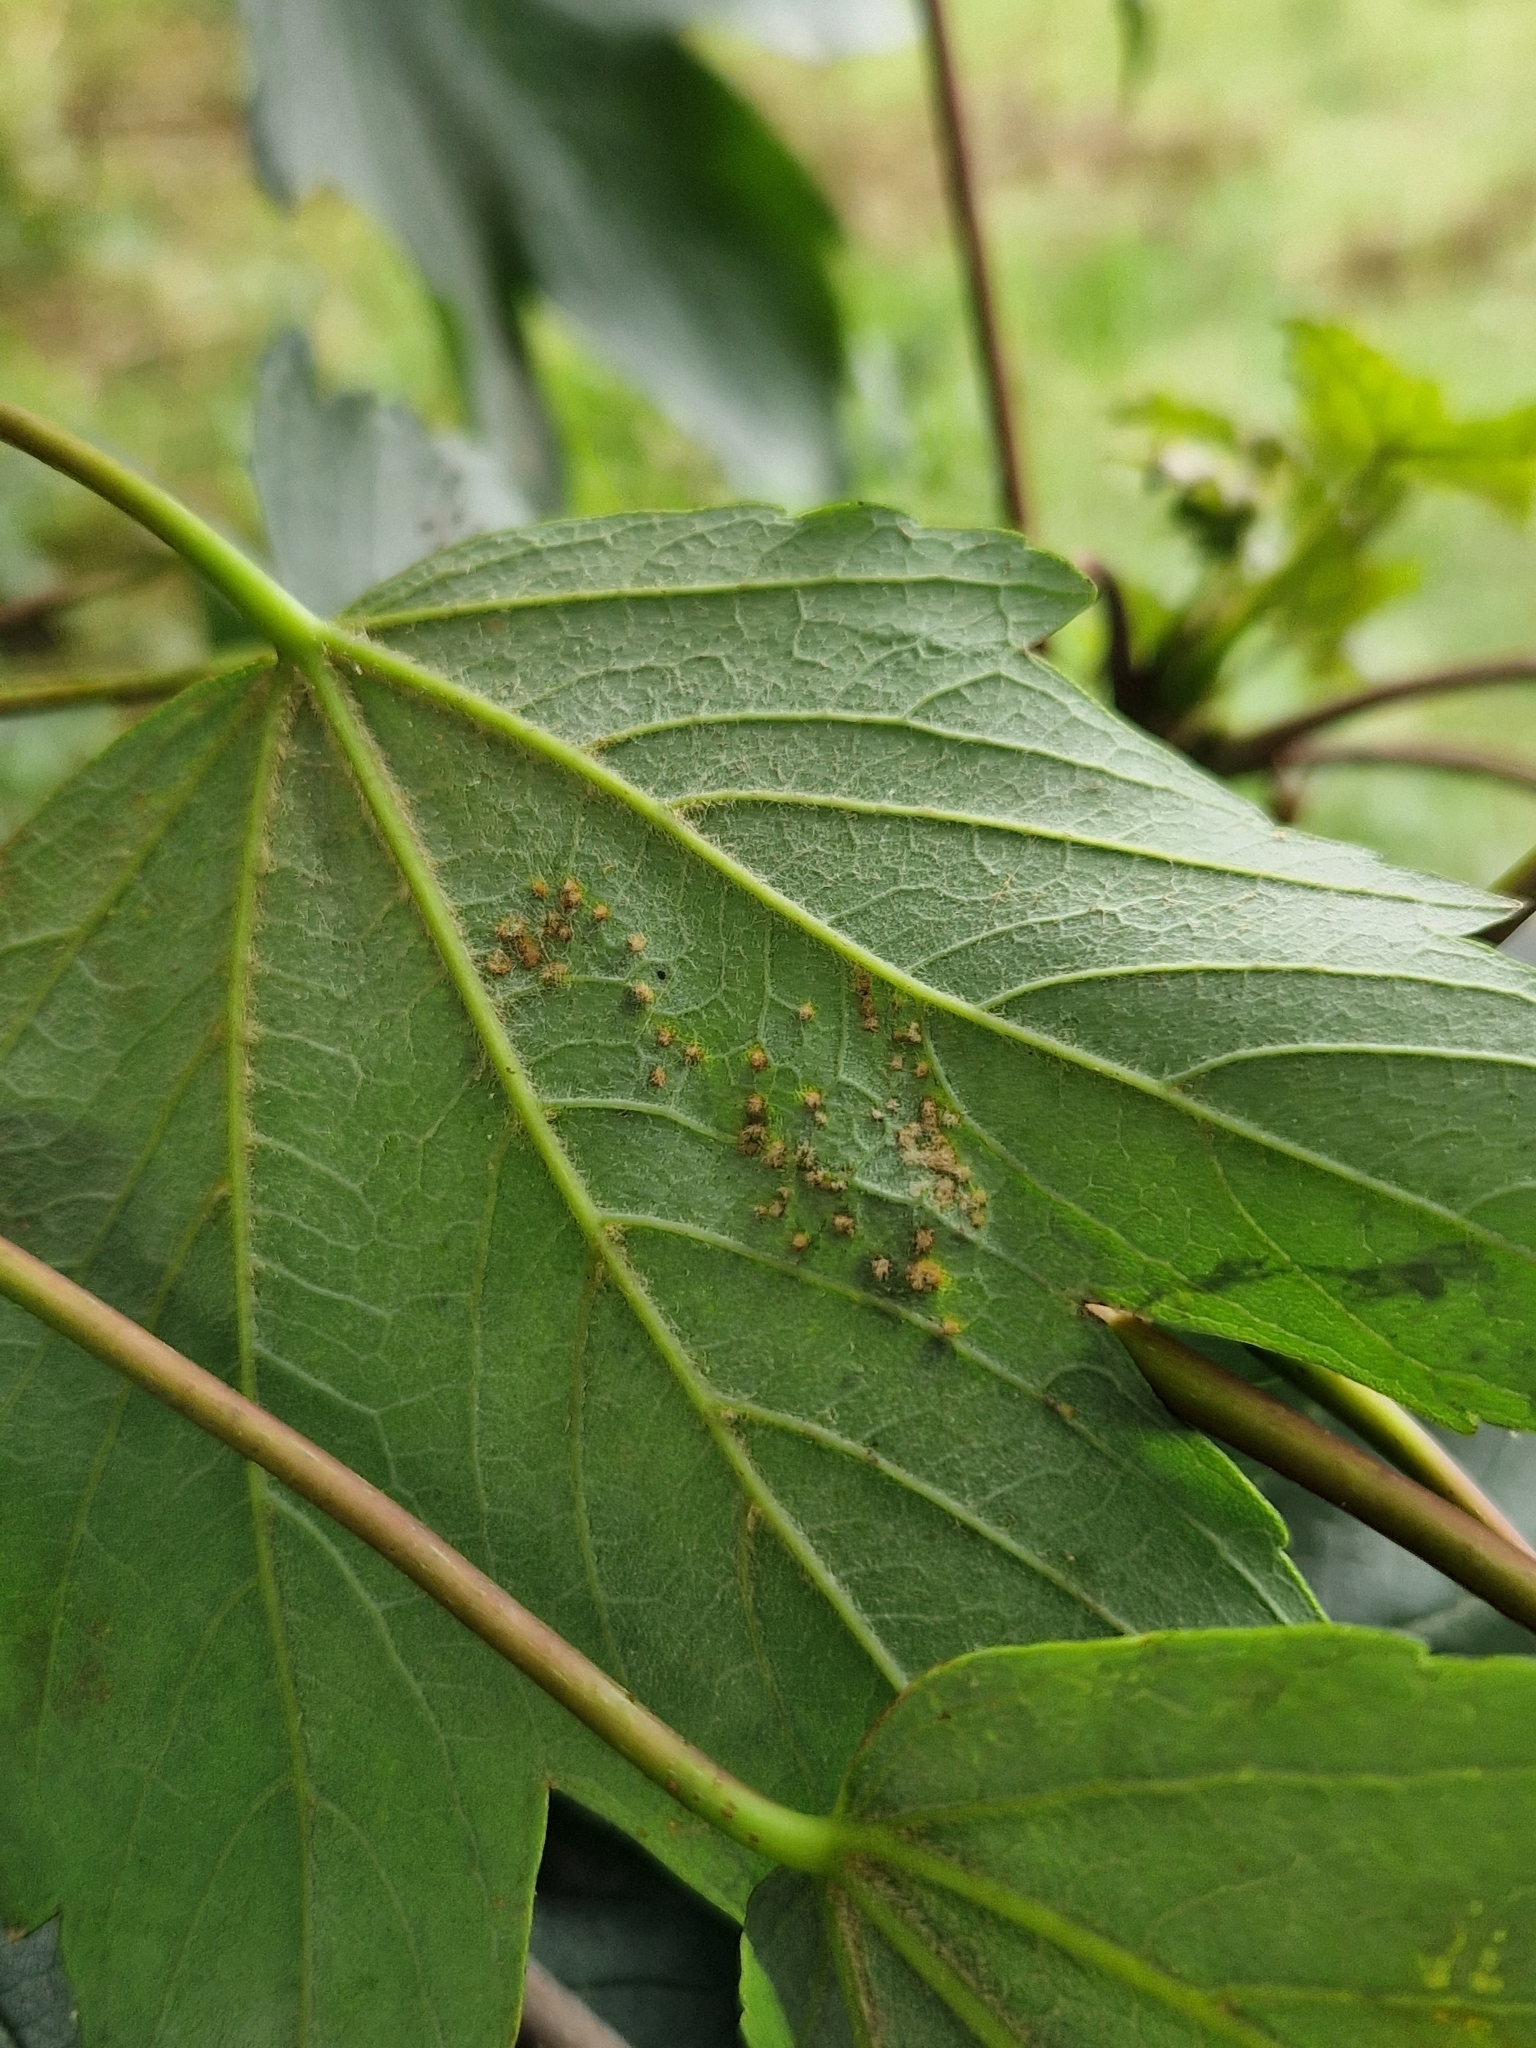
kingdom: Animalia
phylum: Arthropoda
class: Arachnida
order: Trombidiformes
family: Eriophyidae
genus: Aceria
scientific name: Aceria cephaloneus
